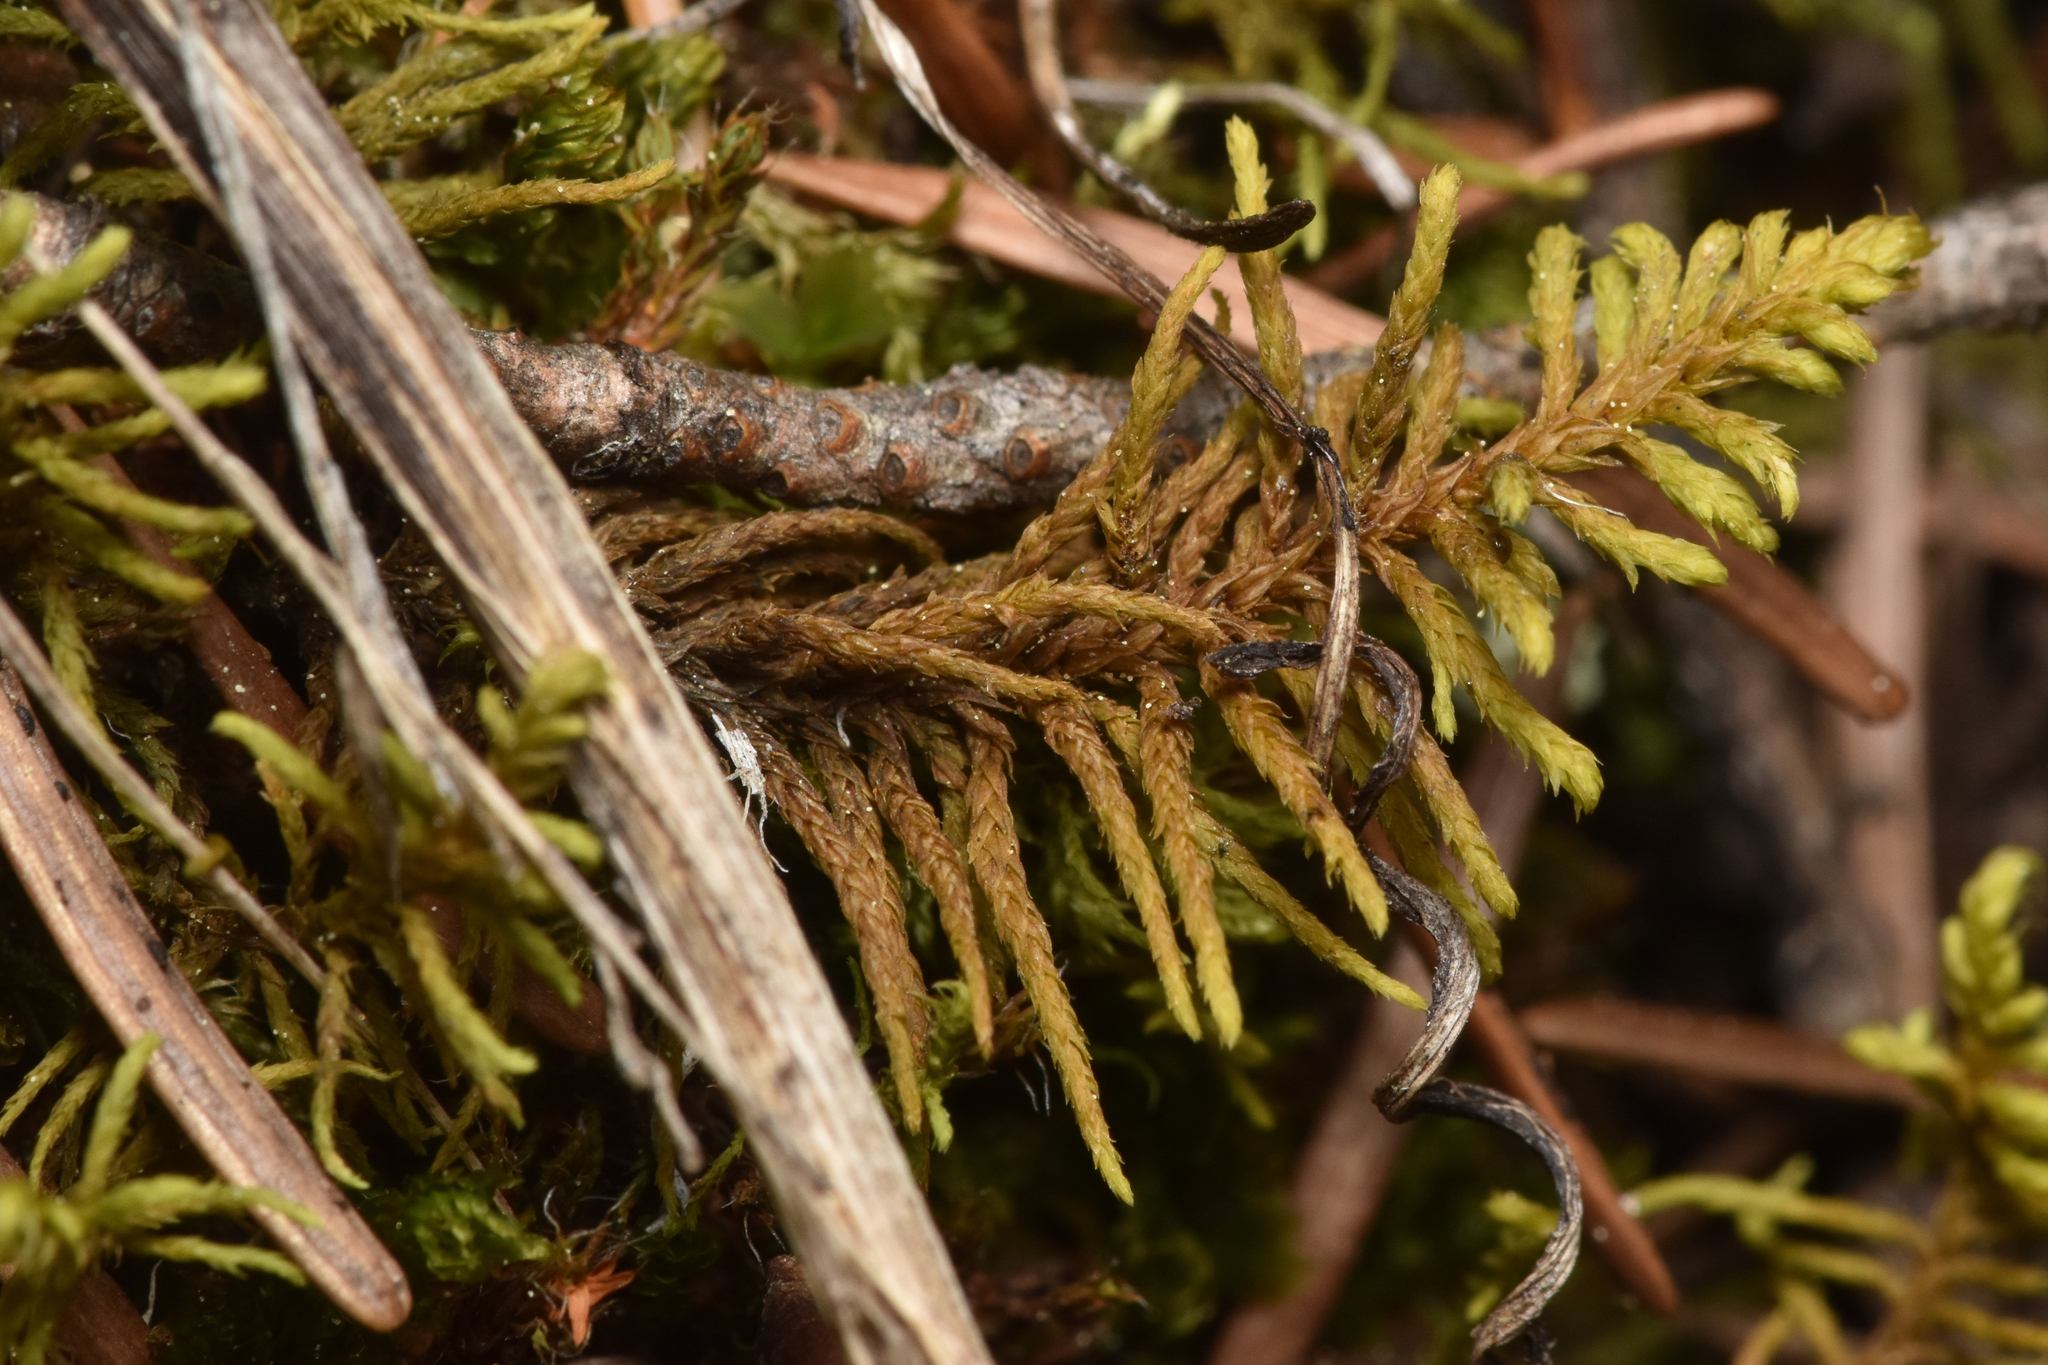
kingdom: Plantae
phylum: Bryophyta
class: Bryopsida
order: Hypnales
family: Thuidiaceae
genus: Abietinella
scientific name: Abietinella abietina
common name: Wiry fern moss
